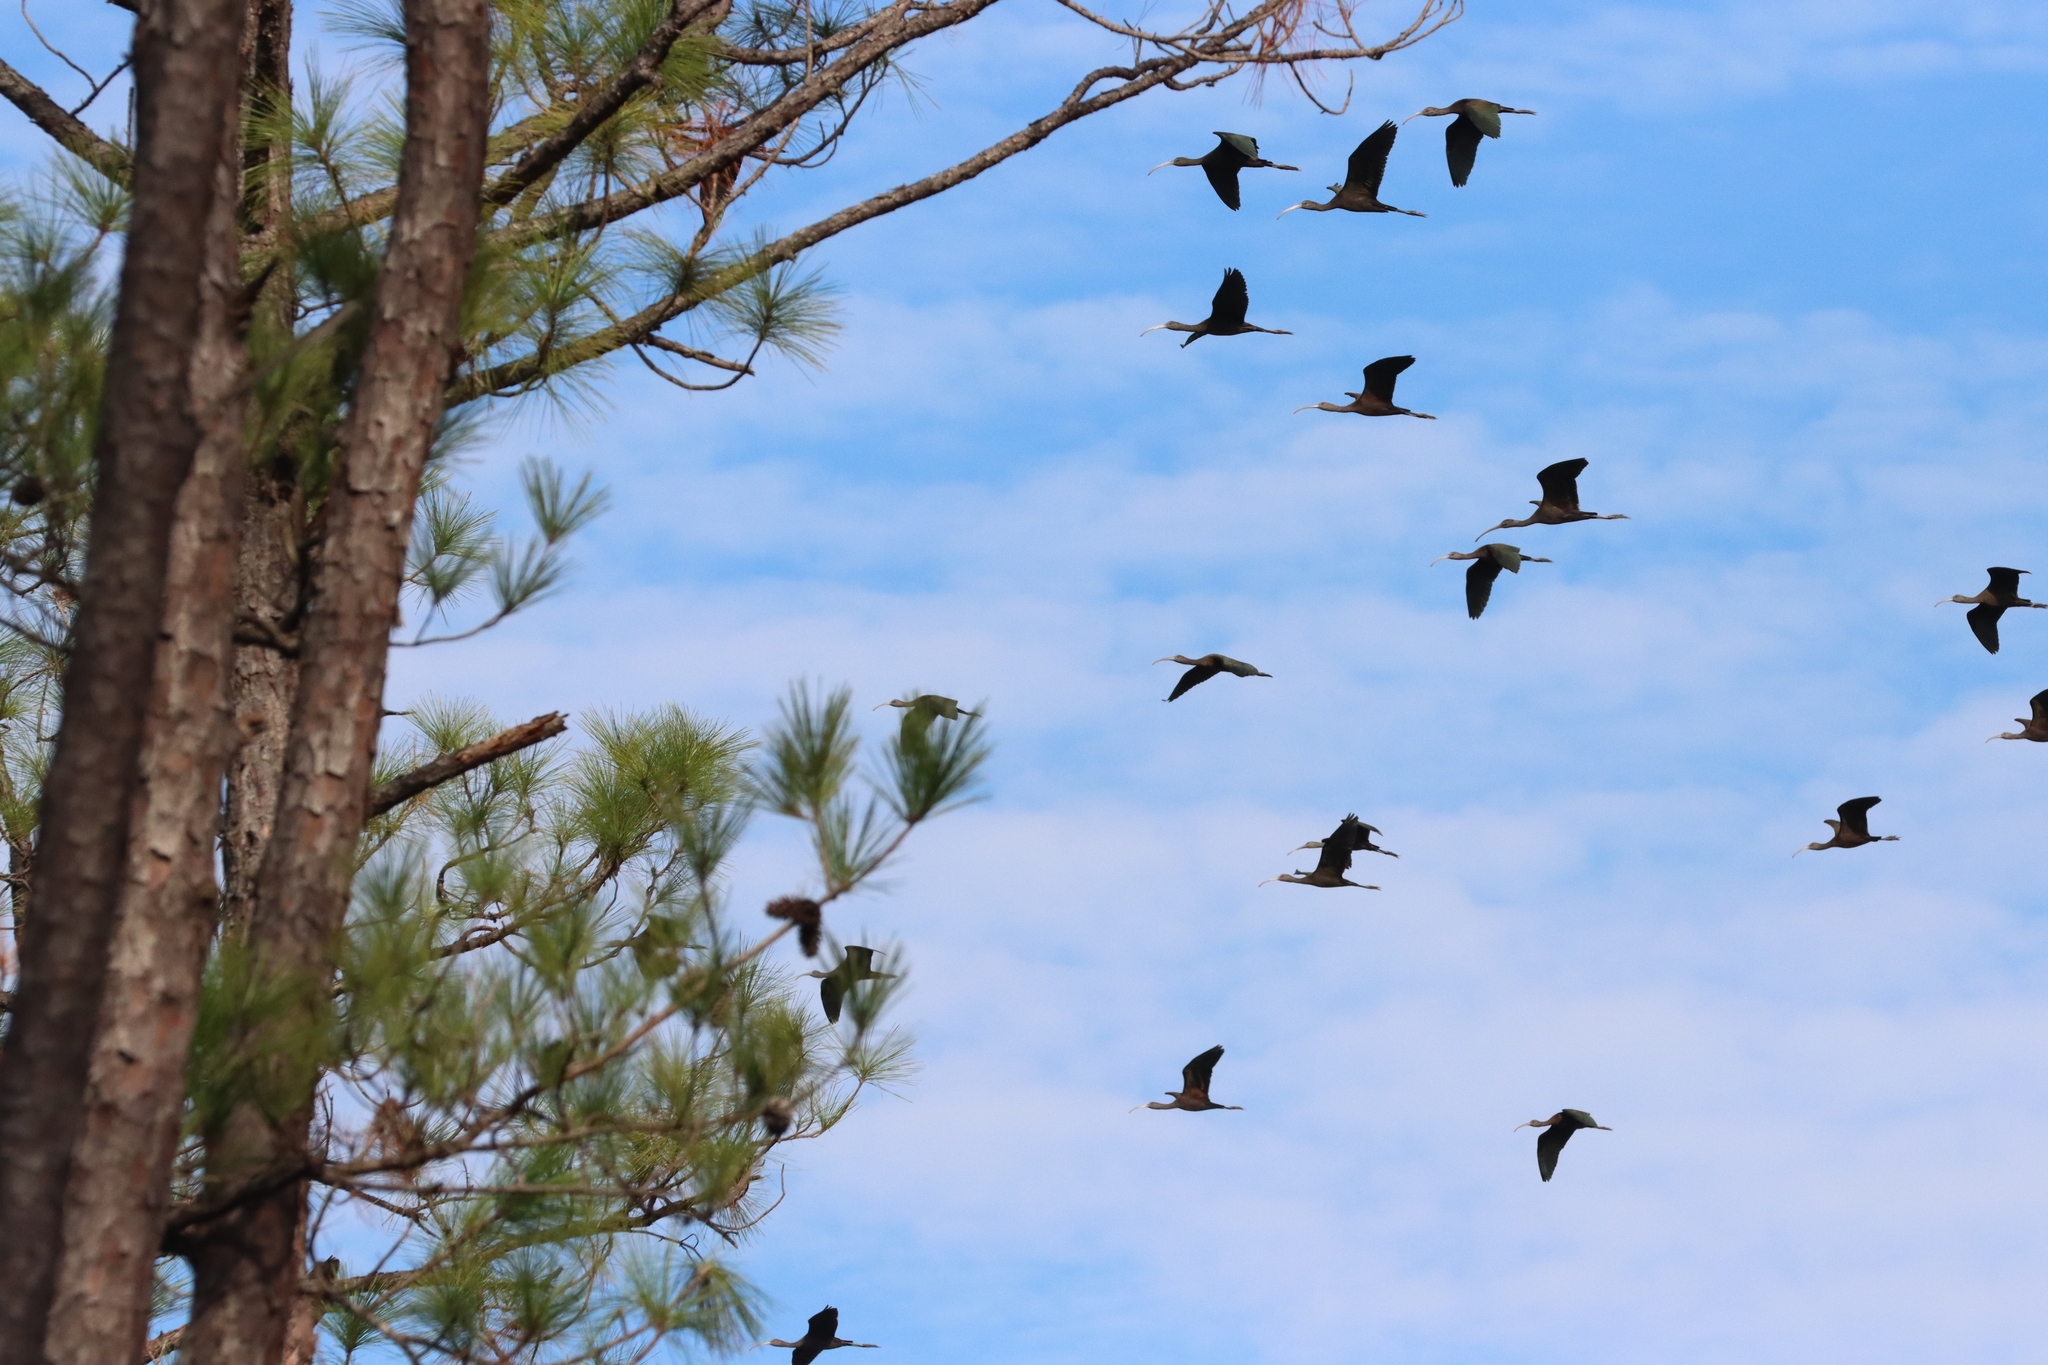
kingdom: Animalia
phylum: Chordata
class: Aves
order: Pelecaniformes
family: Threskiornithidae
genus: Plegadis
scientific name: Plegadis
